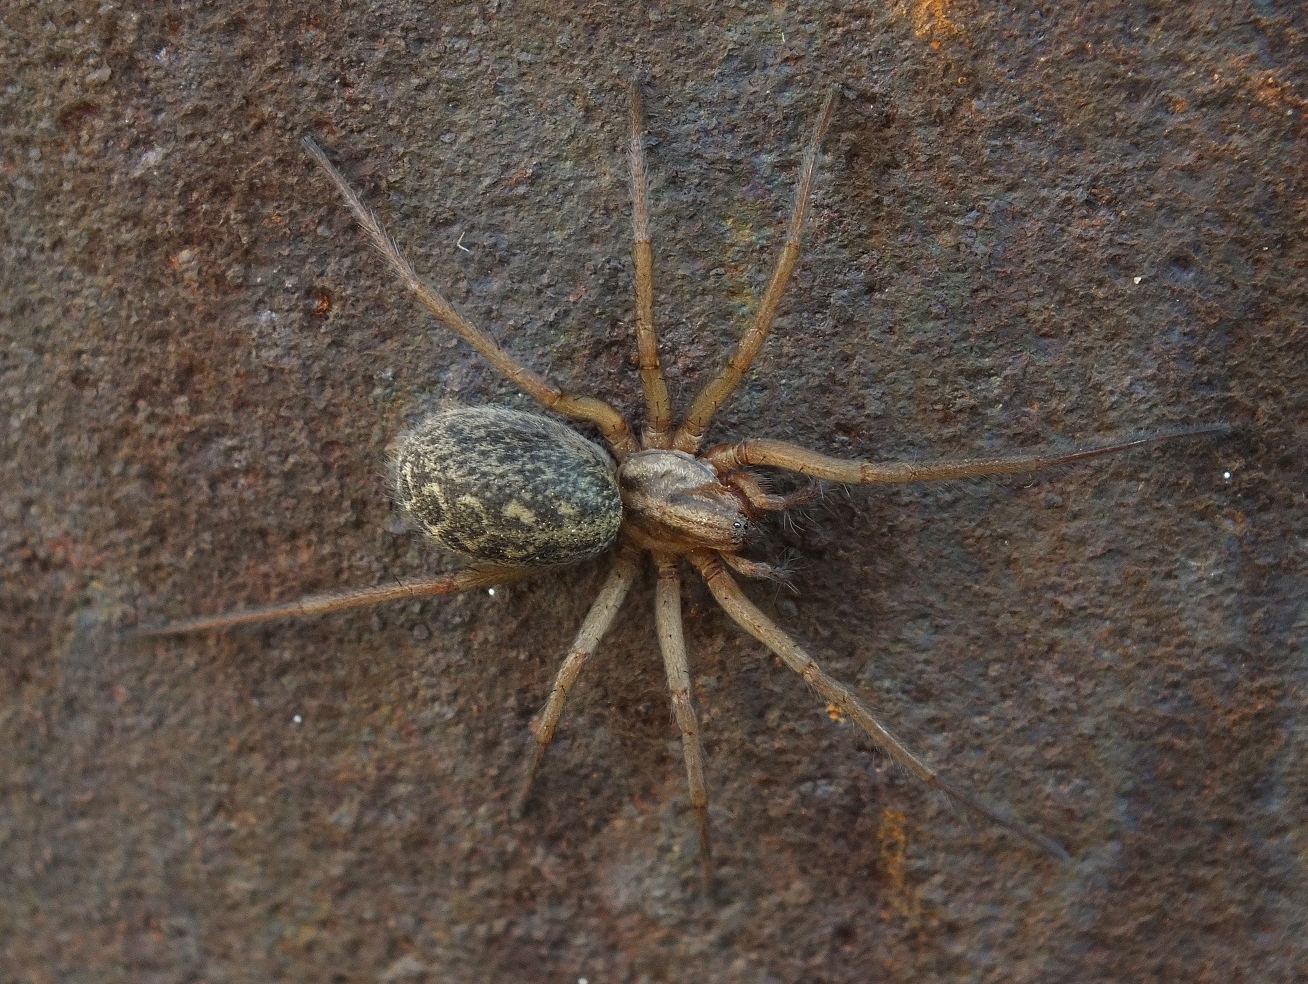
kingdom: Animalia
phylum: Arthropoda
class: Arachnida
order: Araneae
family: Agelenidae
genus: Eratigena
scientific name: Eratigena agrestis
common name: Hobo spider
